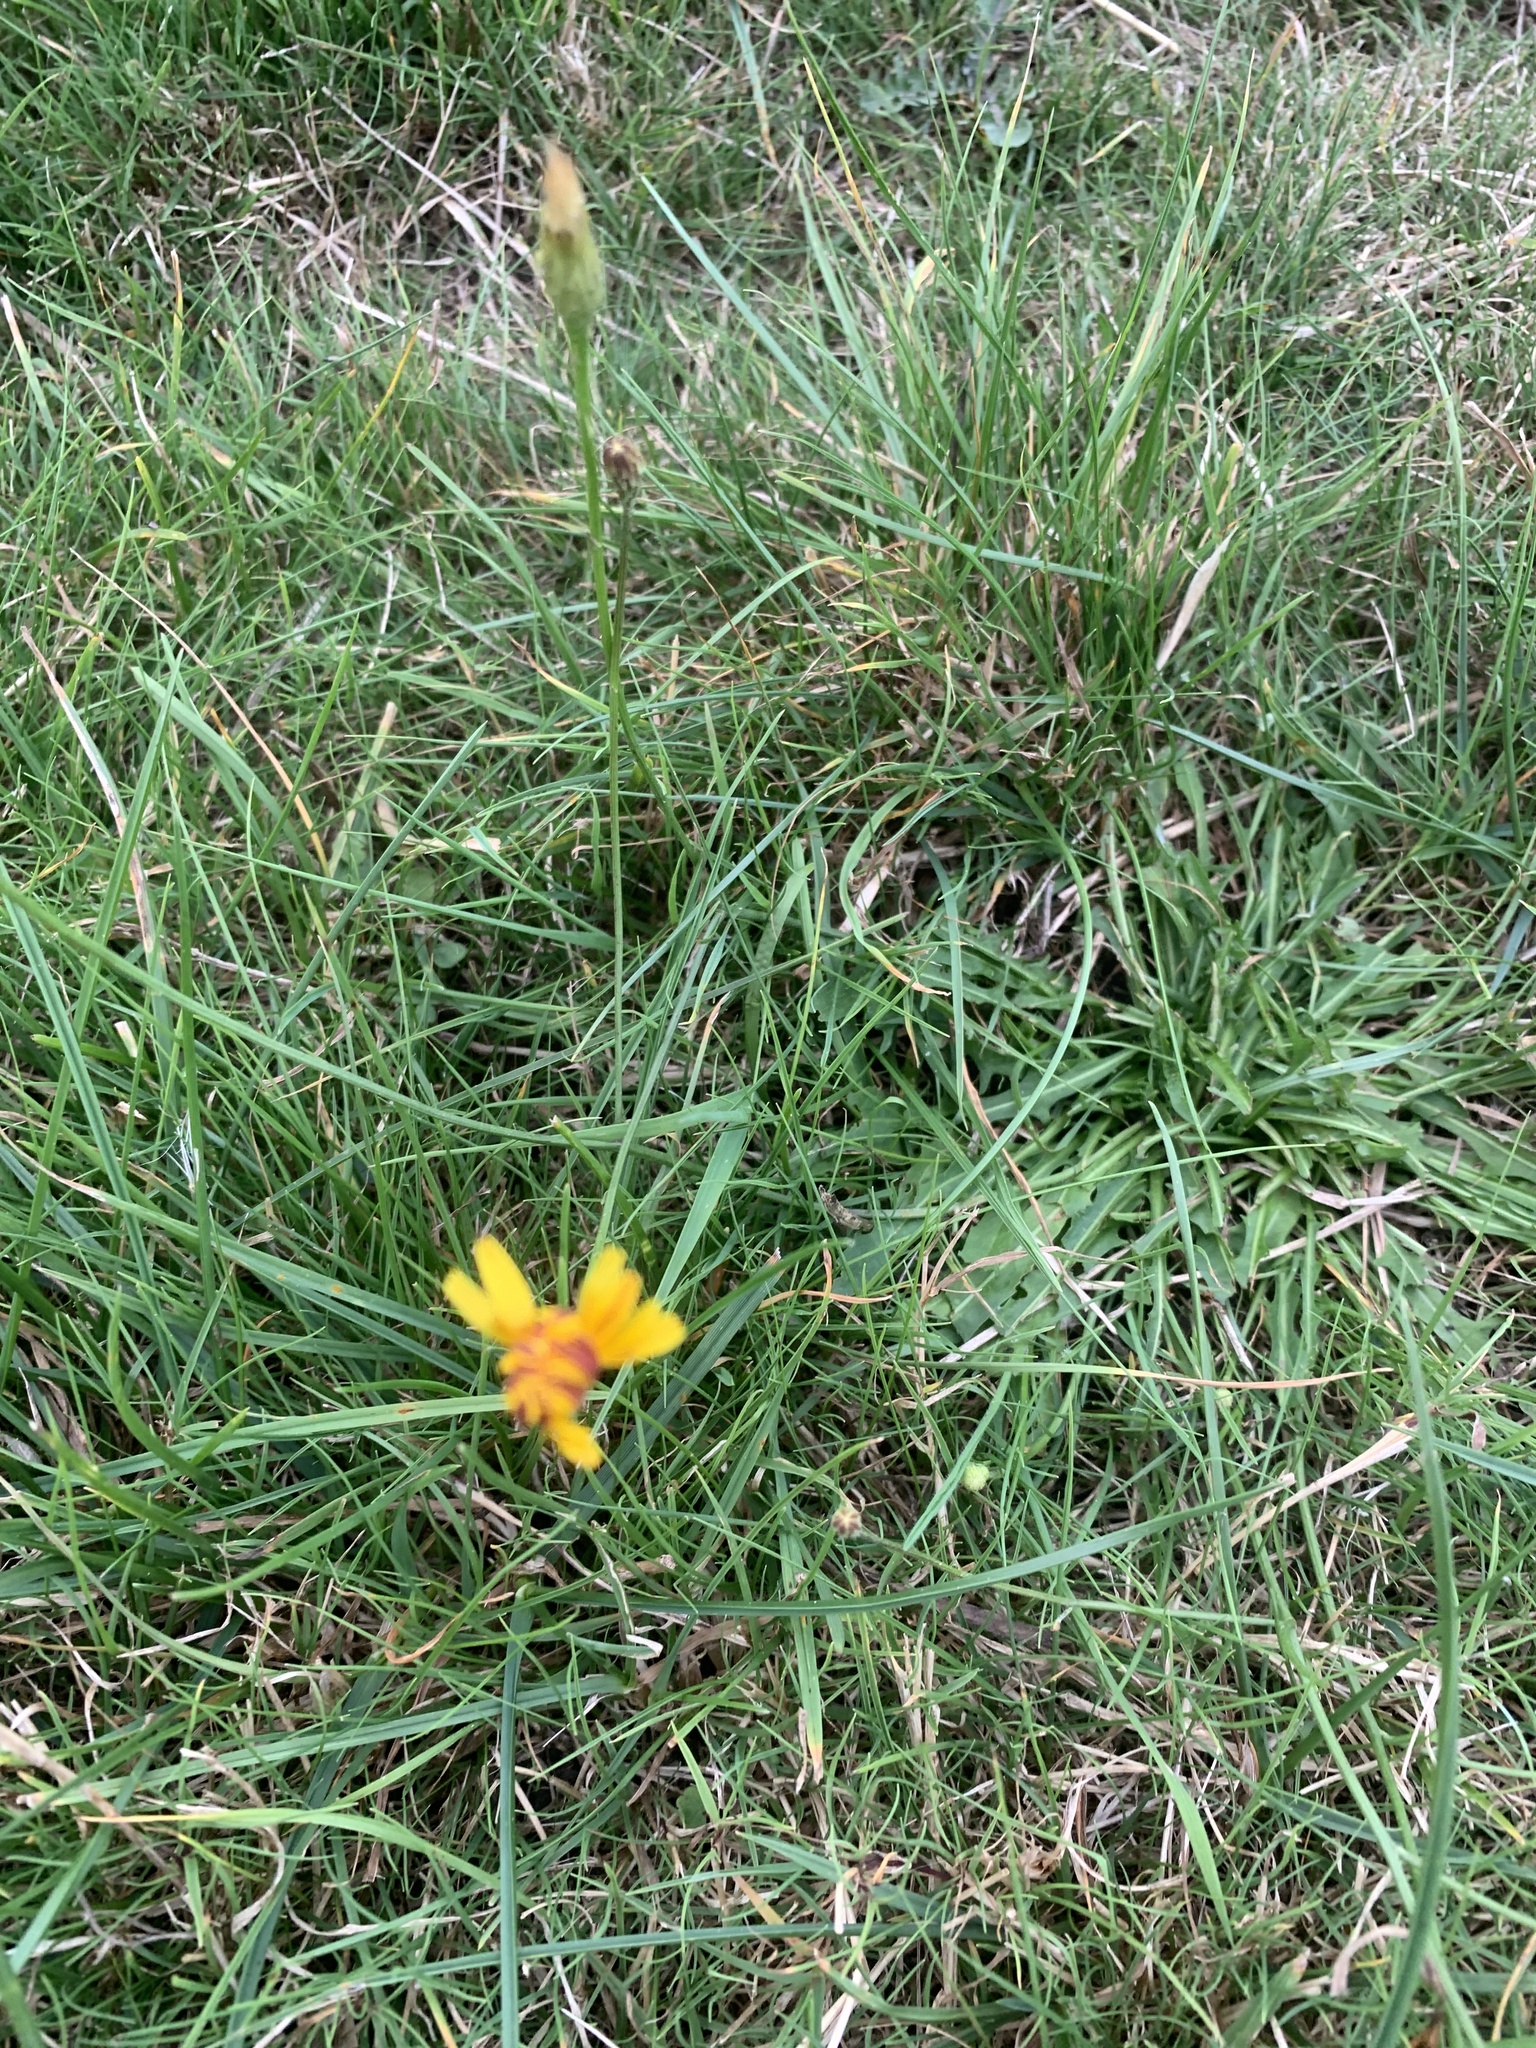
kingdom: Plantae
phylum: Tracheophyta
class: Magnoliopsida
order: Asterales
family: Asteraceae
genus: Scorzoneroides
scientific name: Scorzoneroides autumnalis
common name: Autumn hawkbit
